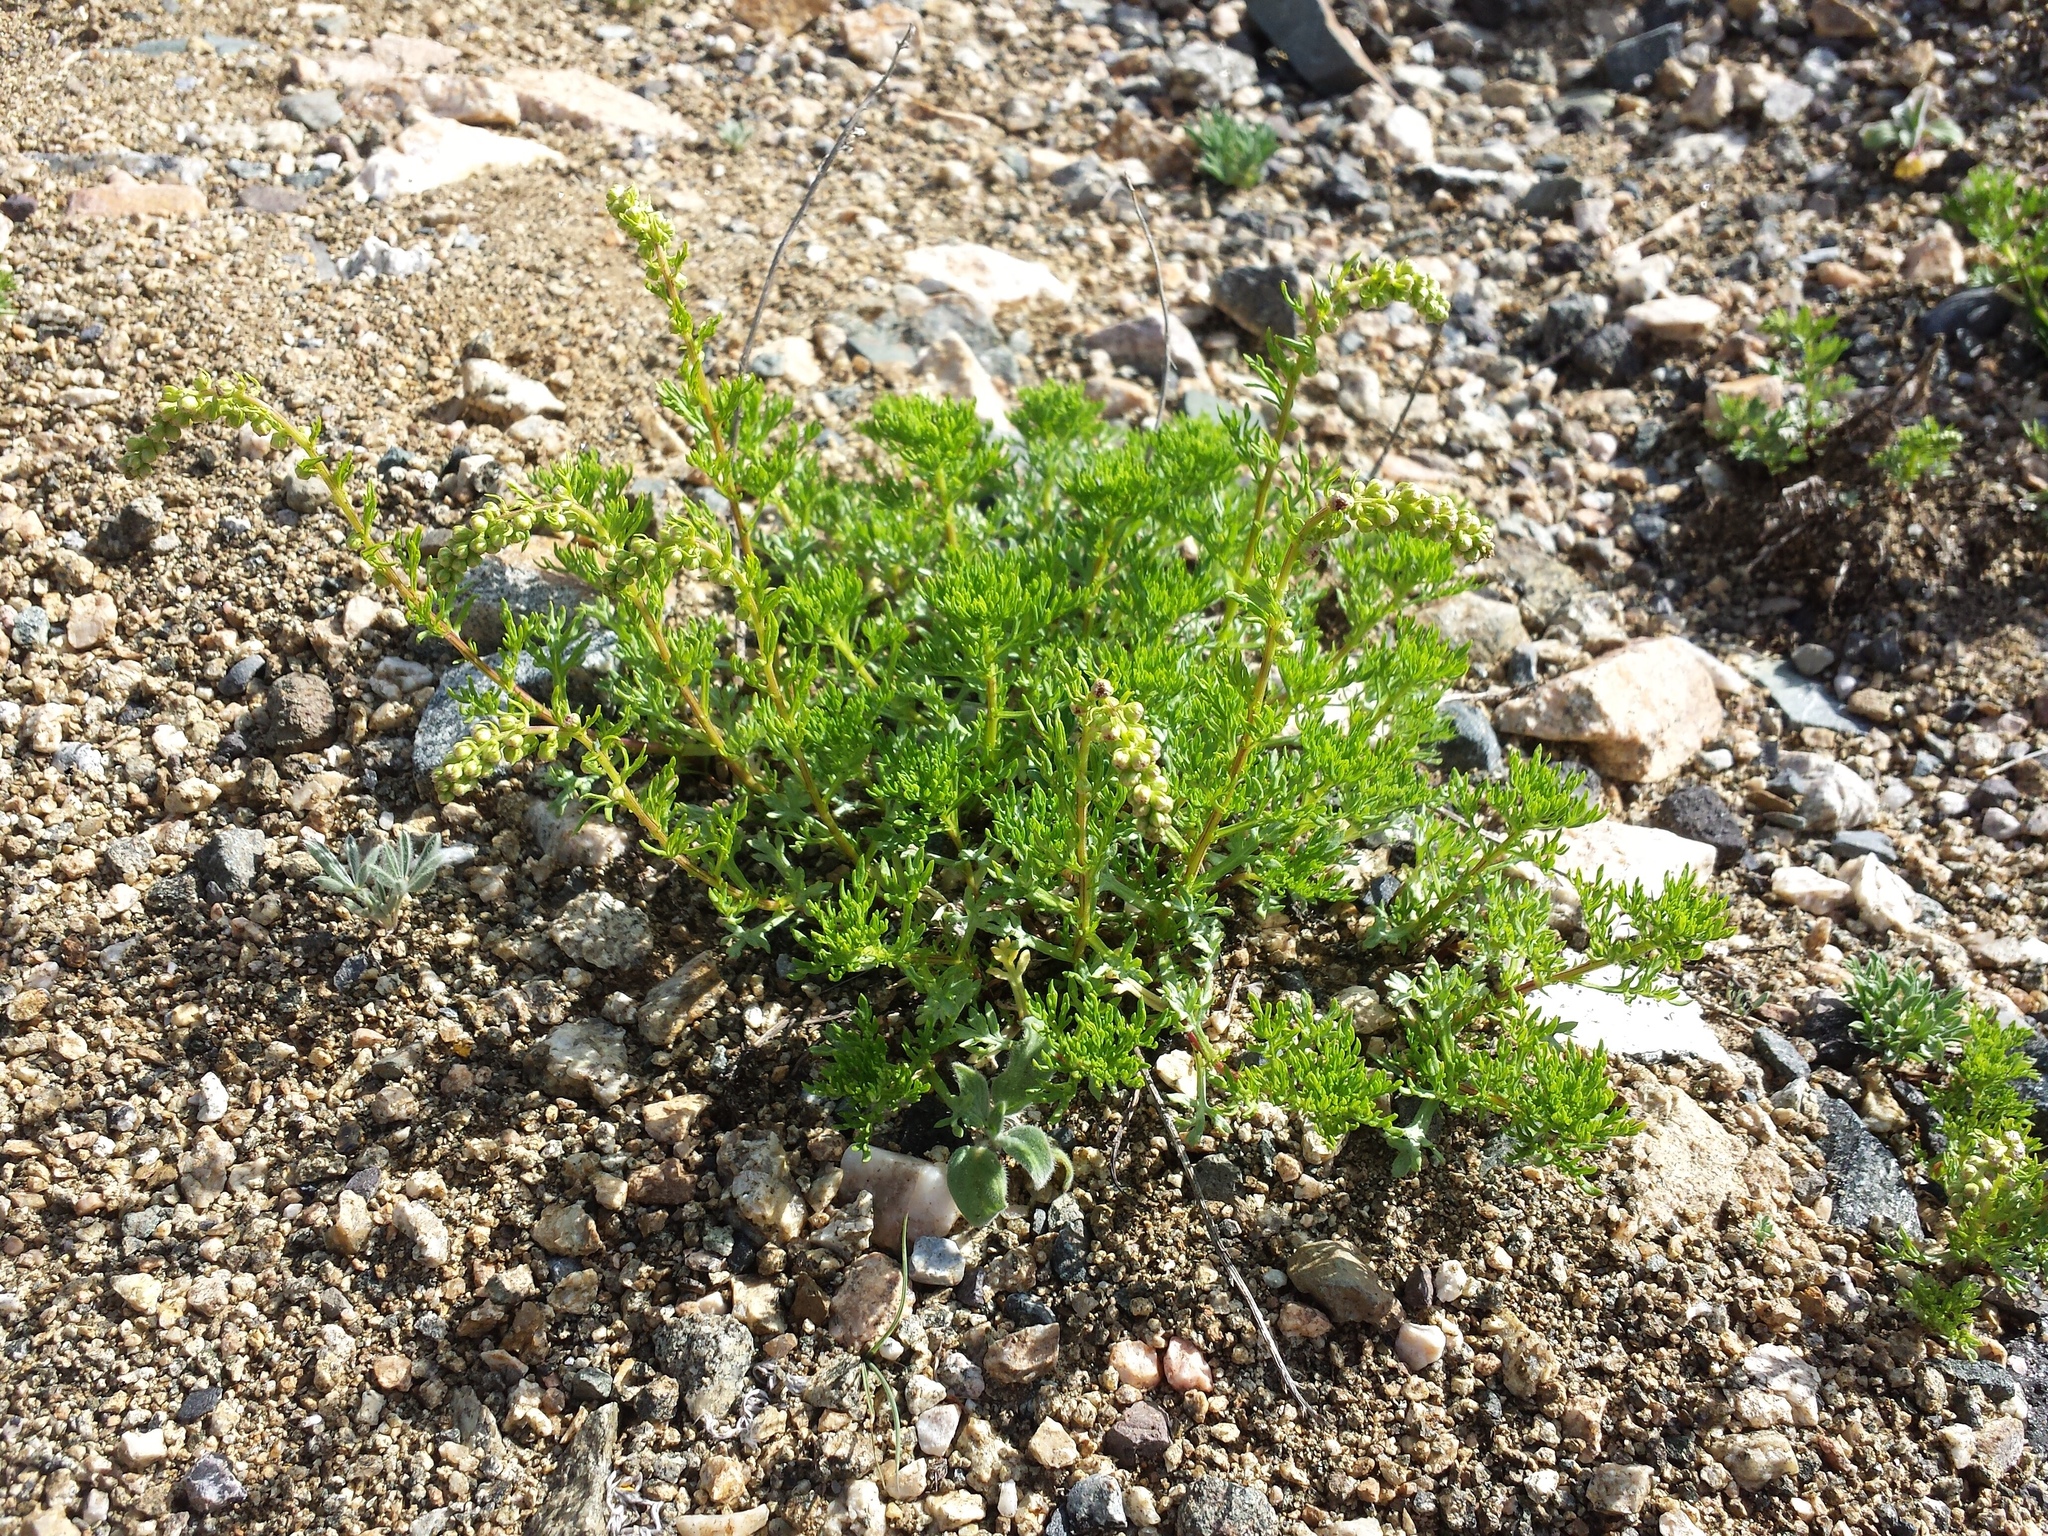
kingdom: Plantae
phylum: Tracheophyta
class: Magnoliopsida
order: Asterales
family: Asteraceae
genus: Artemisia
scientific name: Artemisia michauxiana
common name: Lemon sagewort
